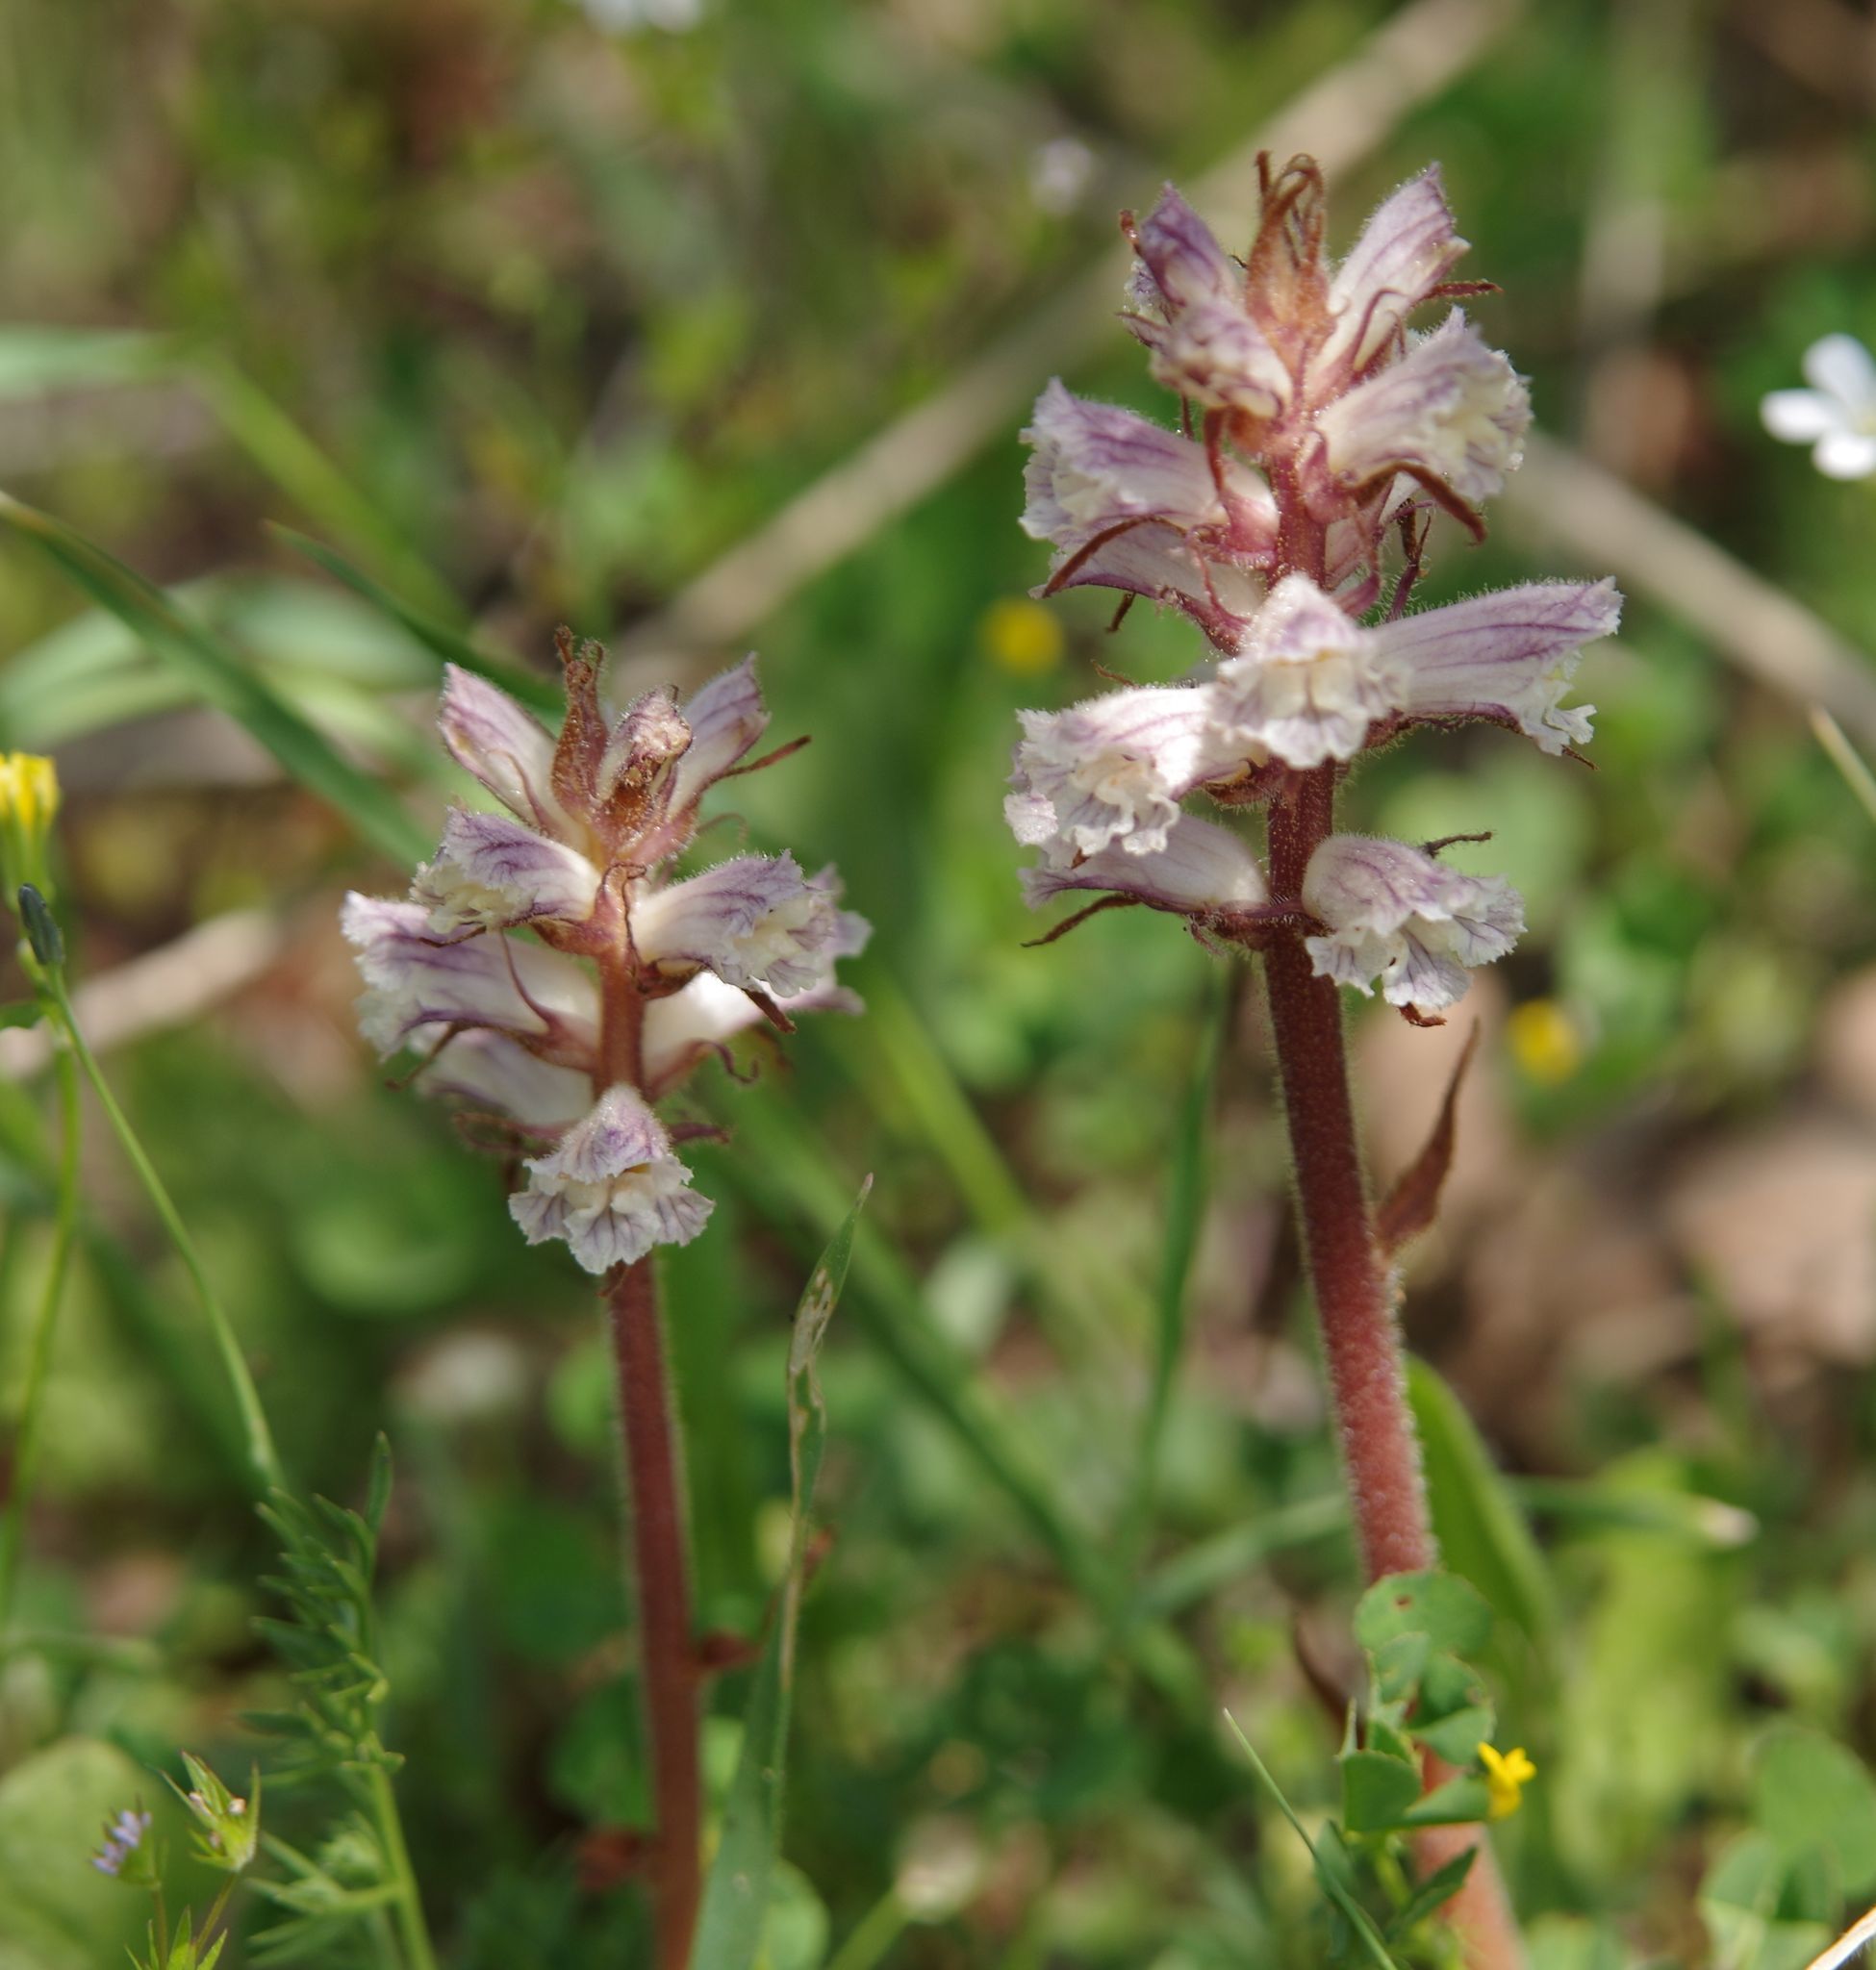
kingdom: Plantae
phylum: Tracheophyta
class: Magnoliopsida
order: Lamiales
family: Orobanchaceae
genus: Orobanche
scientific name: Orobanche minor
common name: Common broomrape
